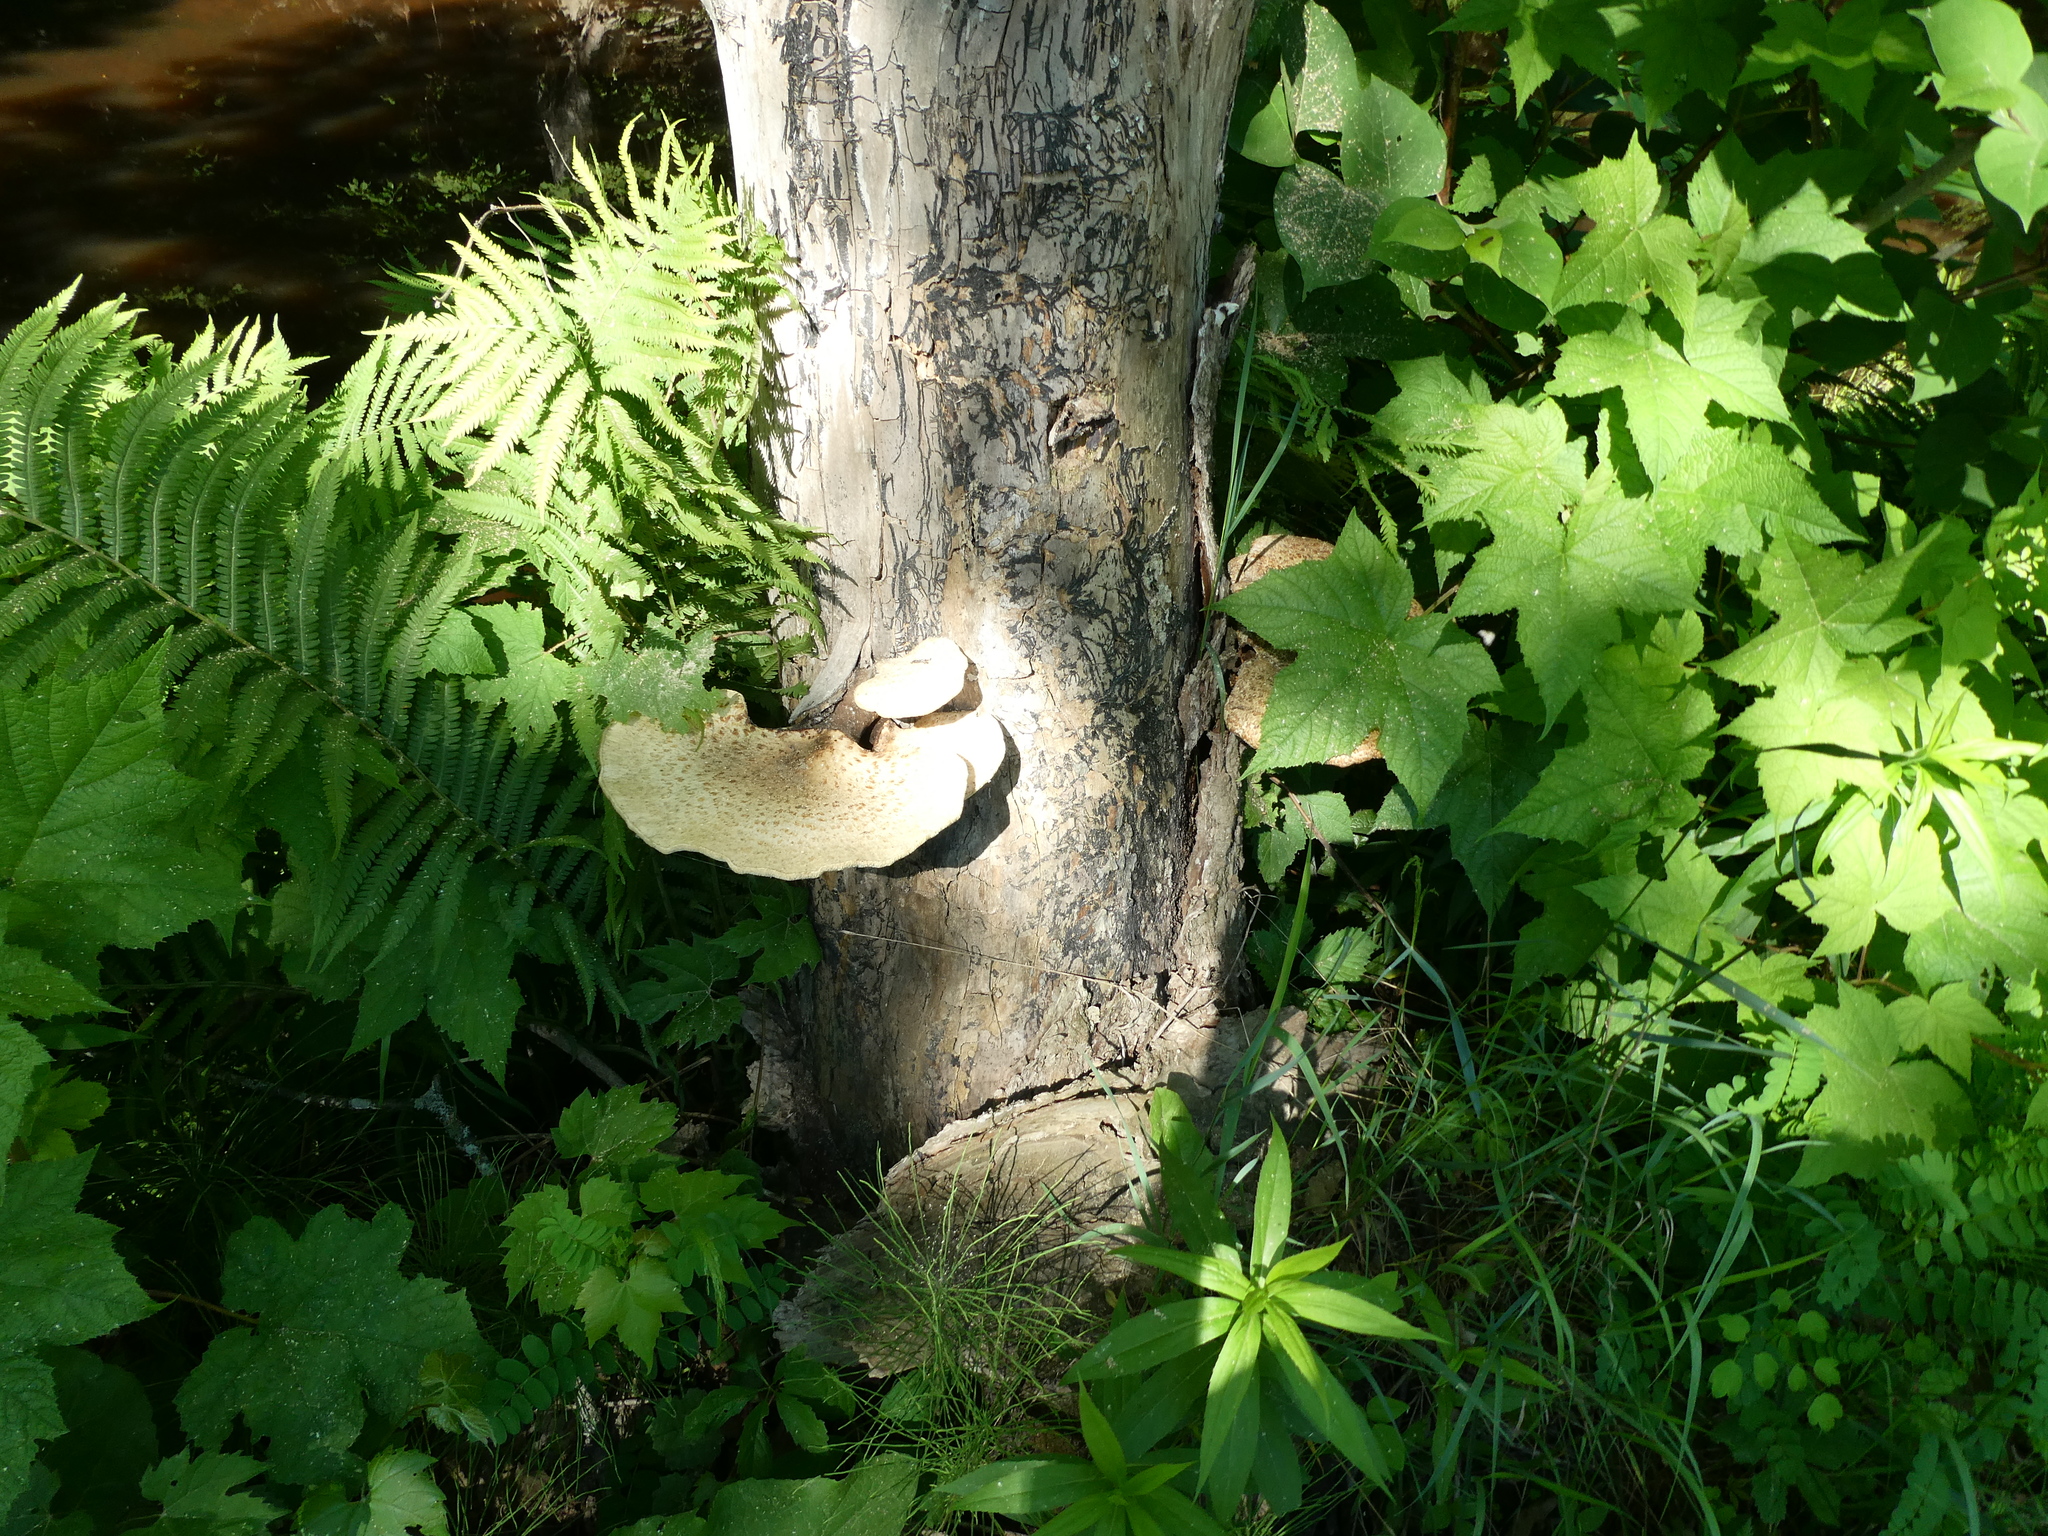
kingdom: Fungi
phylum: Basidiomycota
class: Agaricomycetes
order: Polyporales
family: Polyporaceae
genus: Cerioporus
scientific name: Cerioporus squamosus
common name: Dryad's saddle
